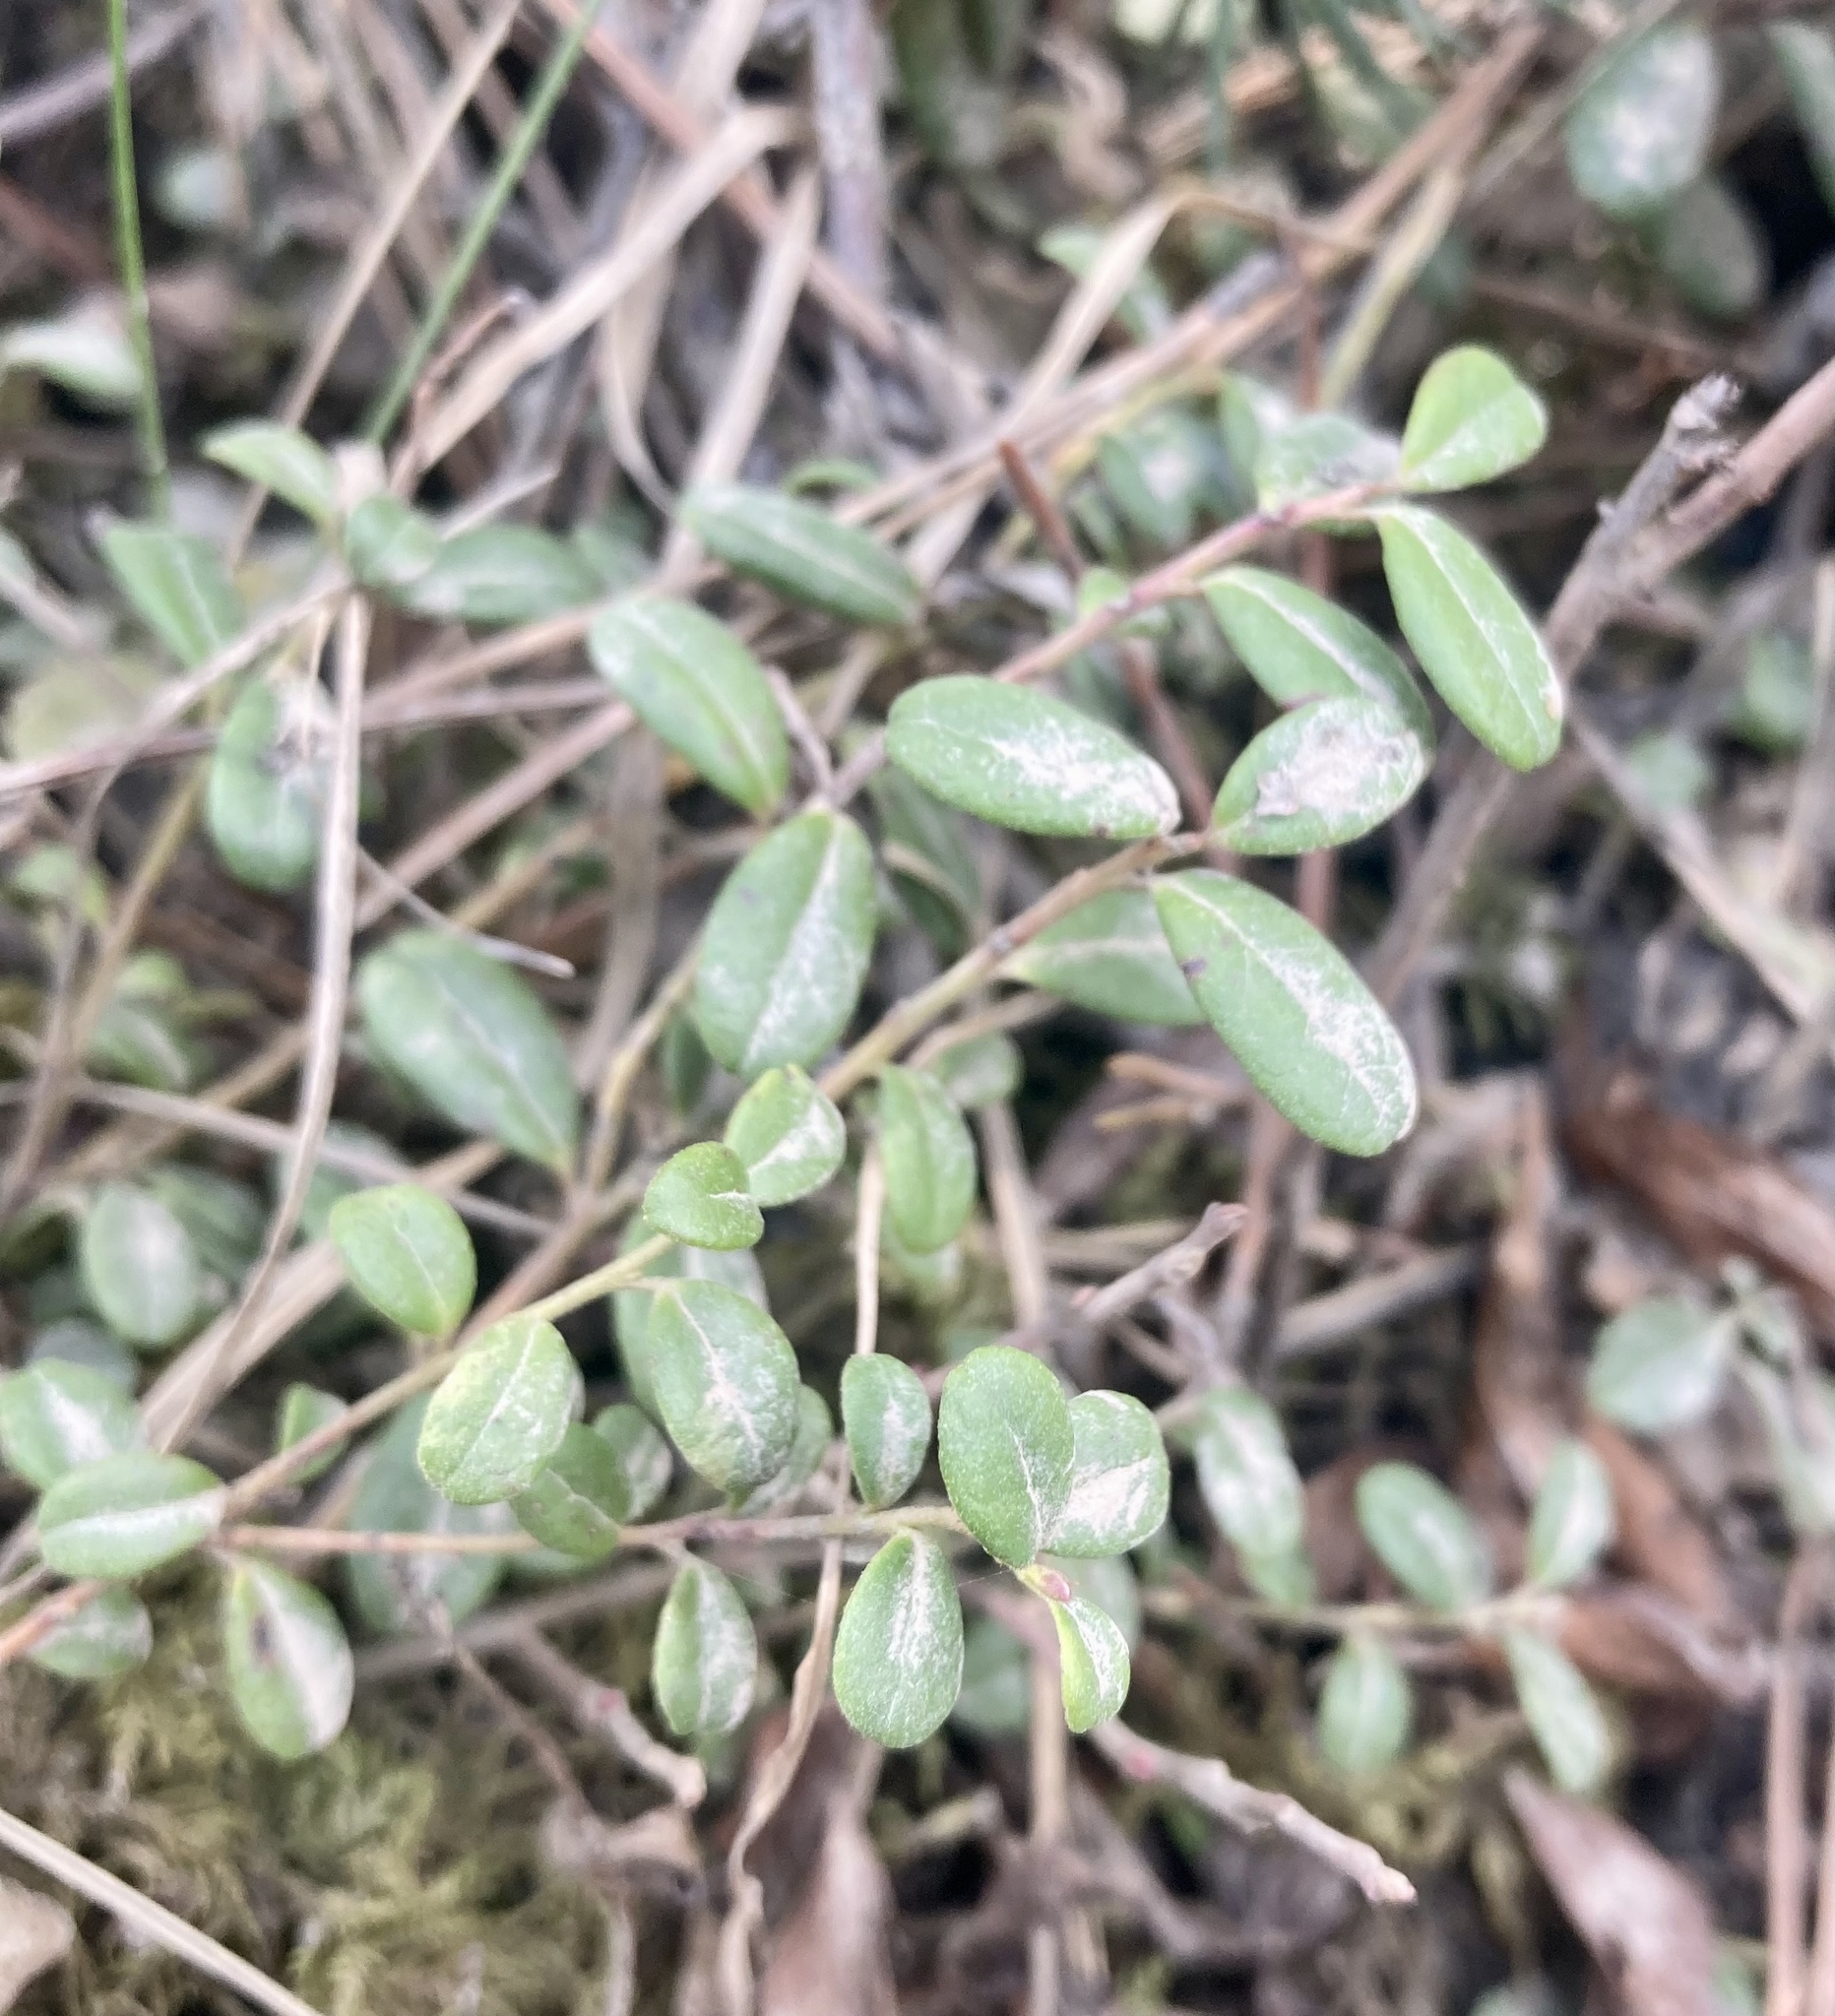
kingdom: Plantae
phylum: Tracheophyta
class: Magnoliopsida
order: Ericales
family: Ericaceae
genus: Vaccinium
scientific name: Vaccinium vitis-idaea
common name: Cowberry
